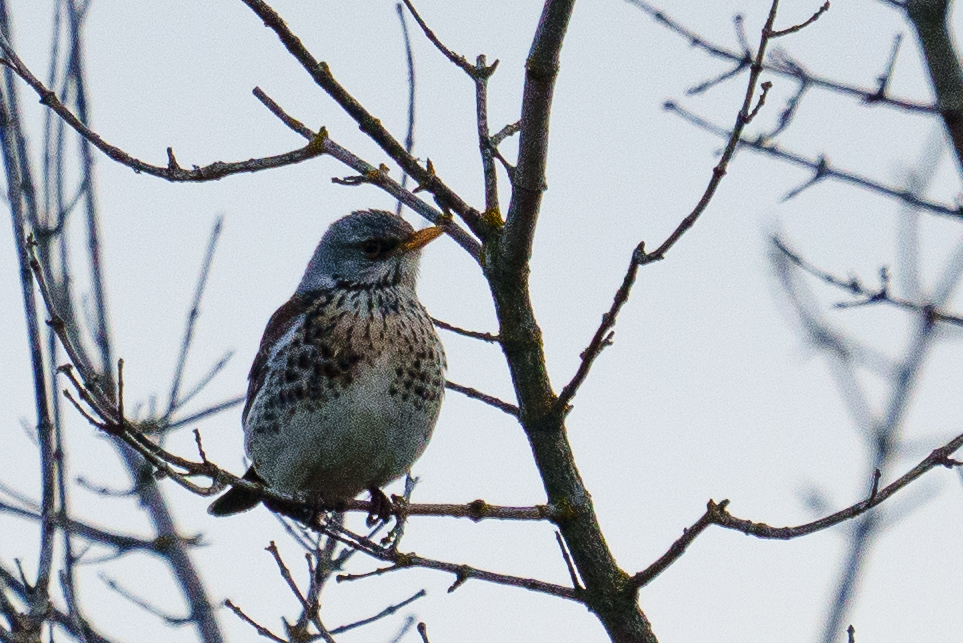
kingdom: Animalia
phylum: Chordata
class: Aves
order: Passeriformes
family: Turdidae
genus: Turdus
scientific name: Turdus pilaris
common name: Fieldfare
